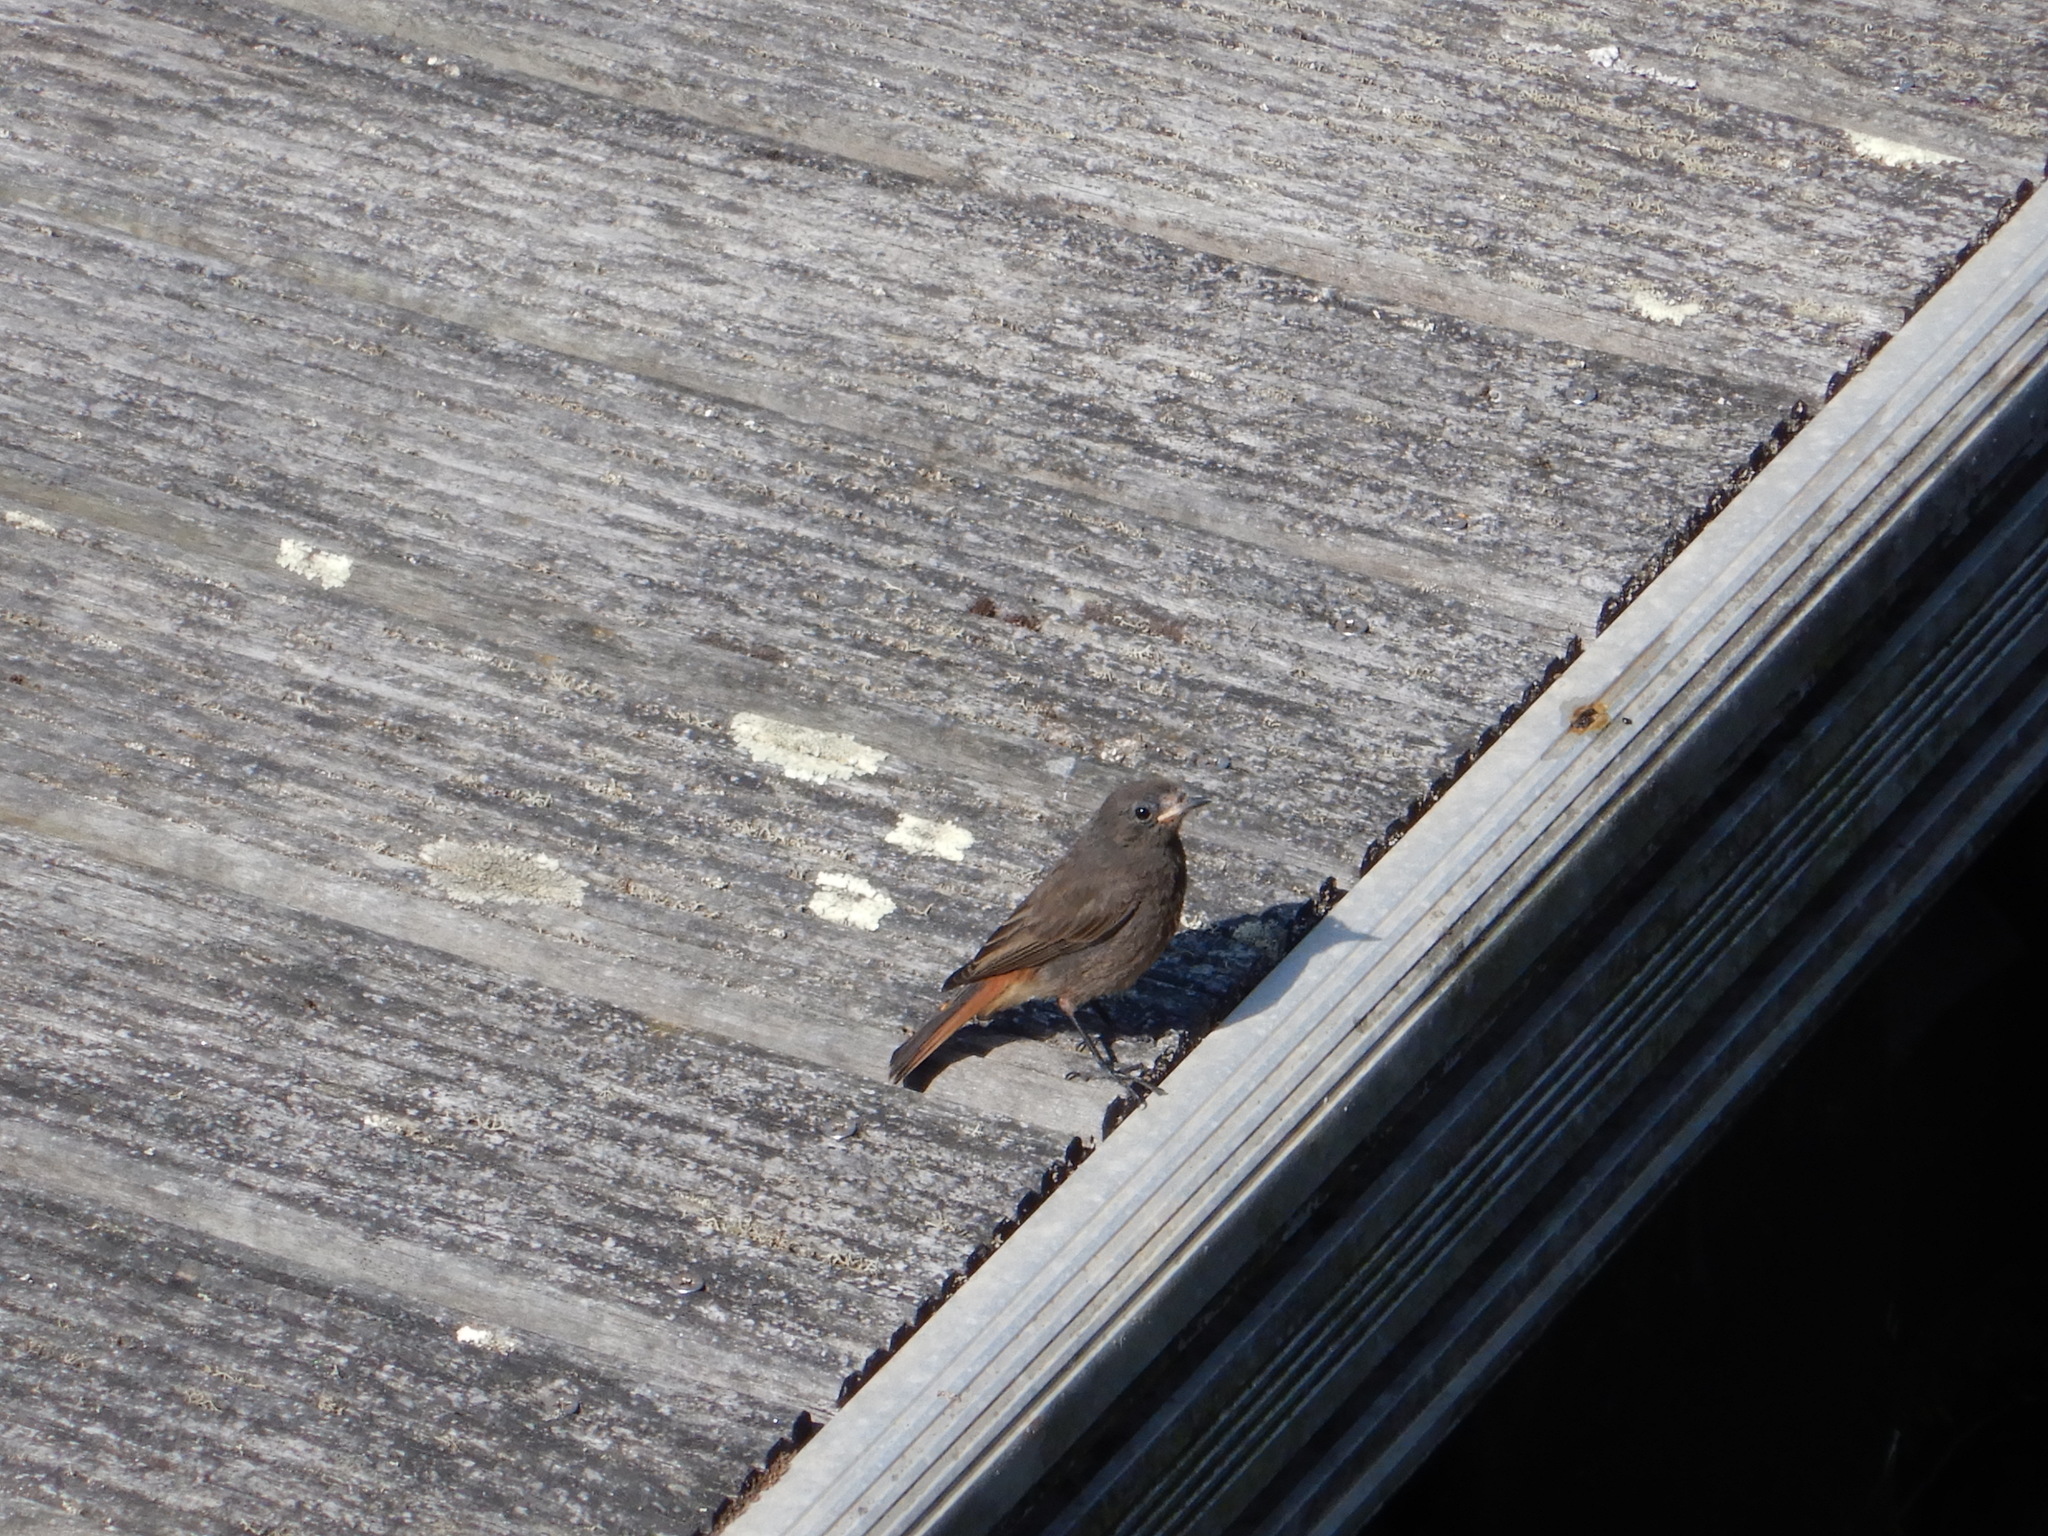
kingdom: Animalia
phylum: Chordata
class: Aves
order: Passeriformes
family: Muscicapidae
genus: Phoenicurus
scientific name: Phoenicurus ochruros
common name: Black redstart
